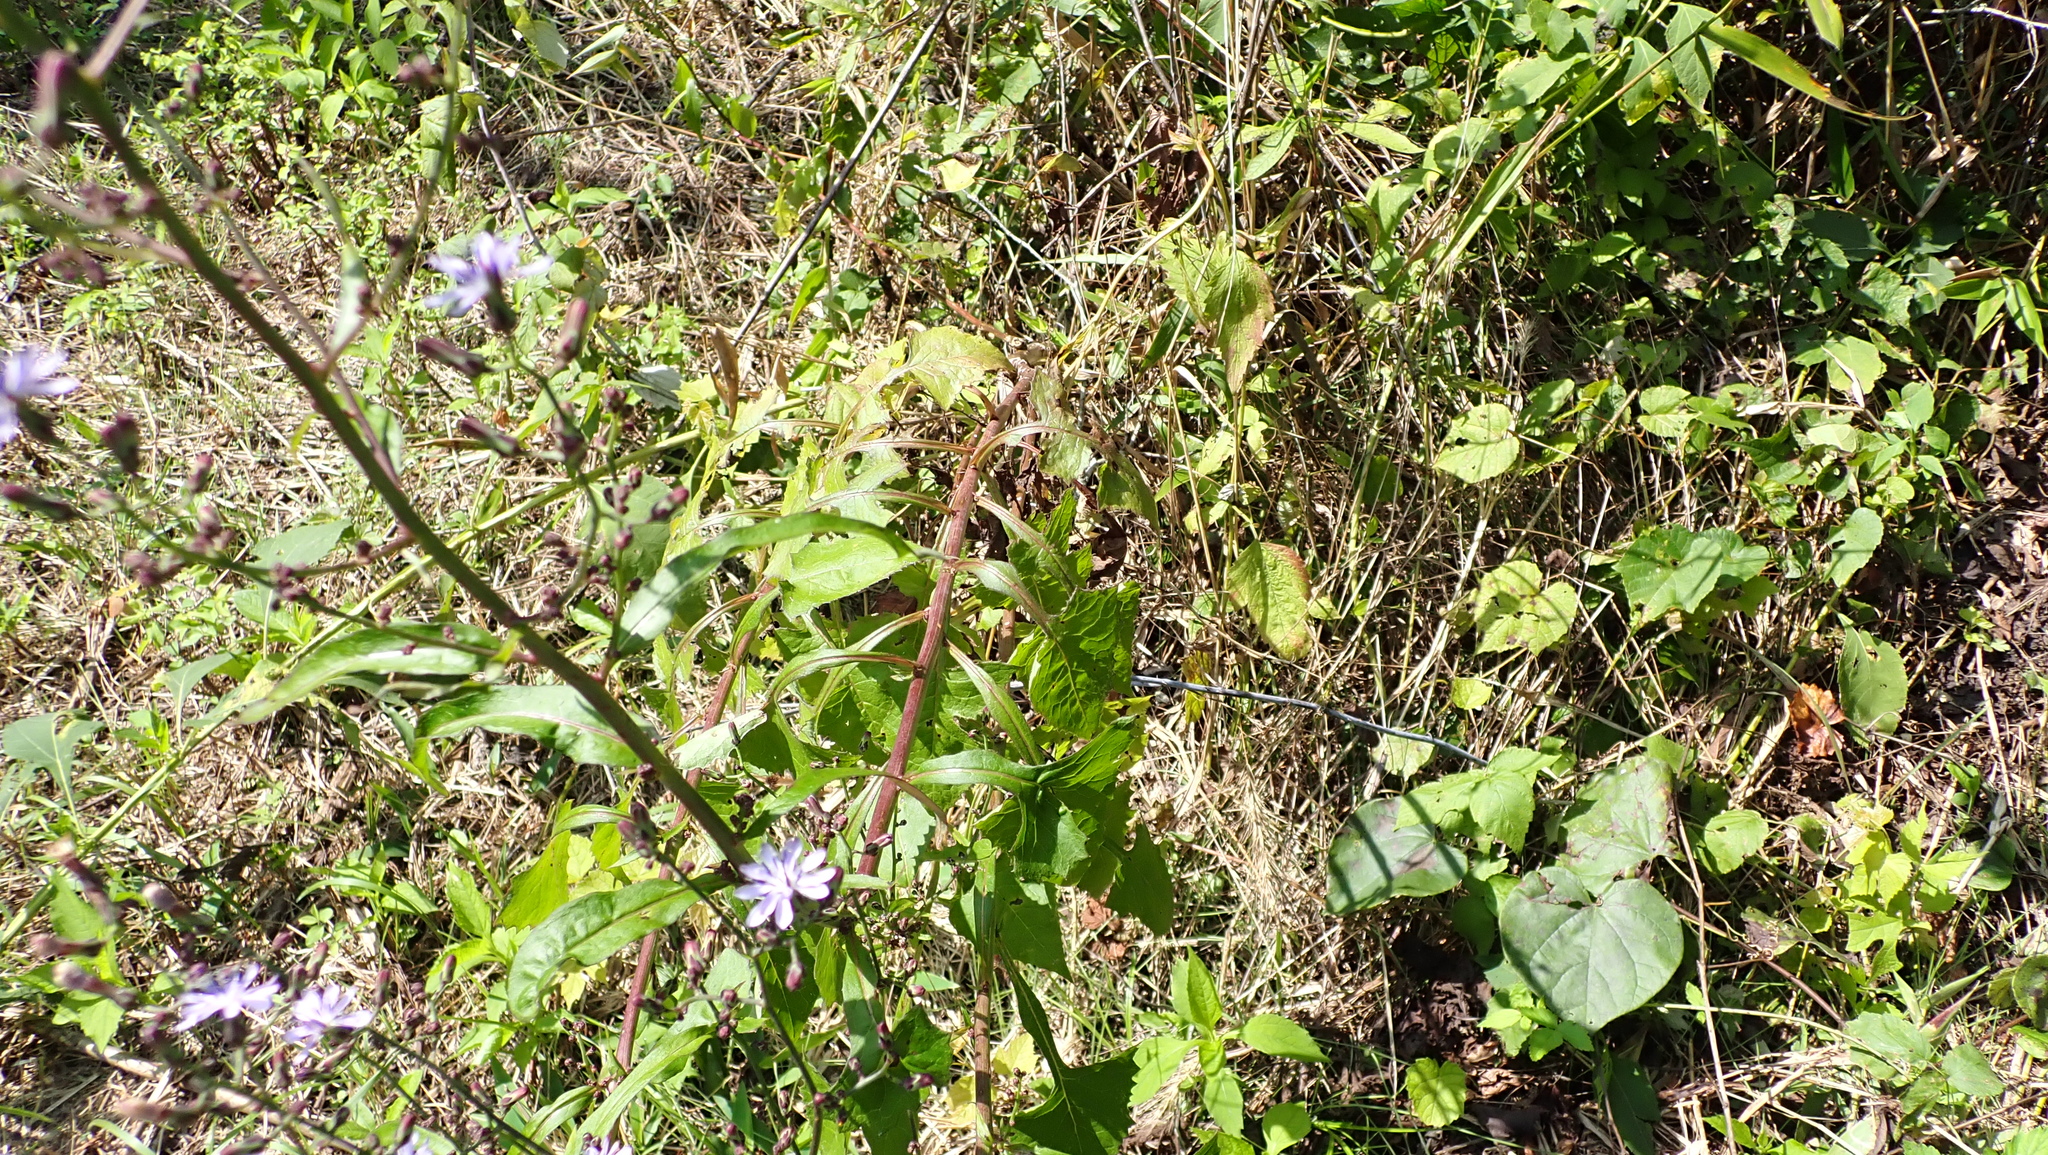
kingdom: Plantae
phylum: Tracheophyta
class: Magnoliopsida
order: Asterales
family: Asteraceae
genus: Lactuca
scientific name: Lactuca floridana
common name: Woodland lettuce
